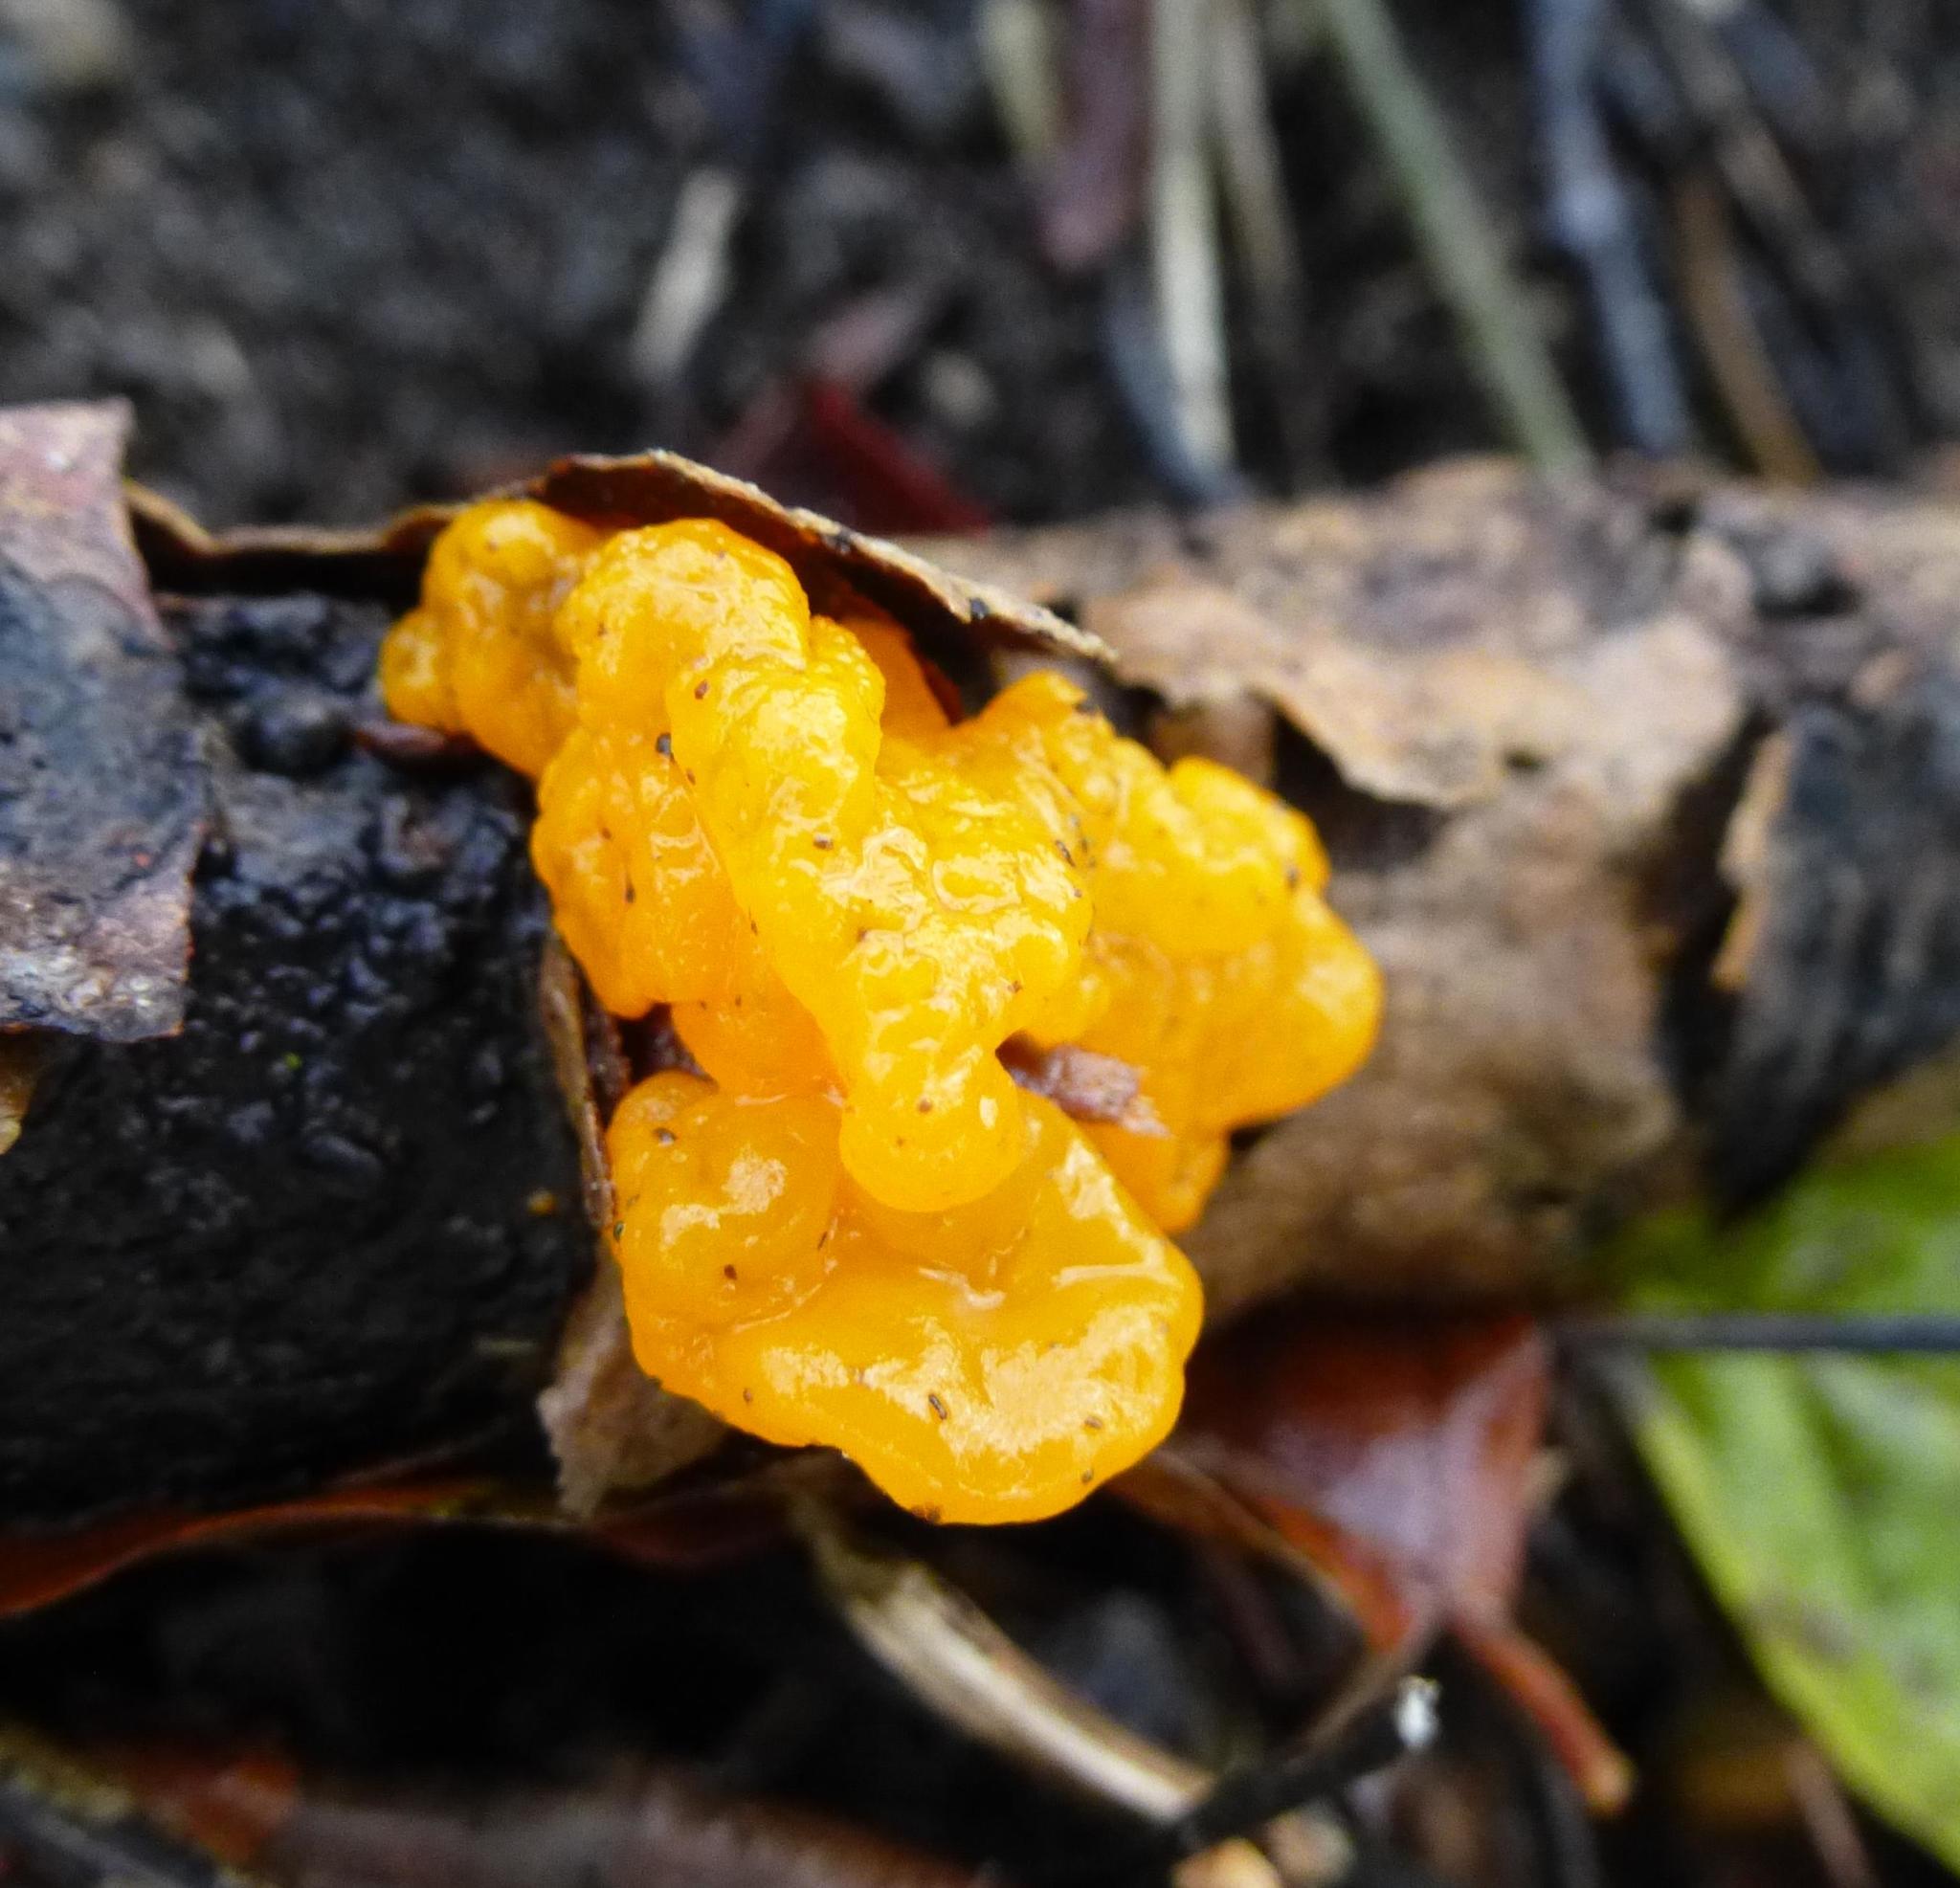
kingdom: Fungi
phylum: Basidiomycota
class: Tremellomycetes
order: Tremellales
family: Tremellaceae
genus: Tremella
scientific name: Tremella mesenterica
